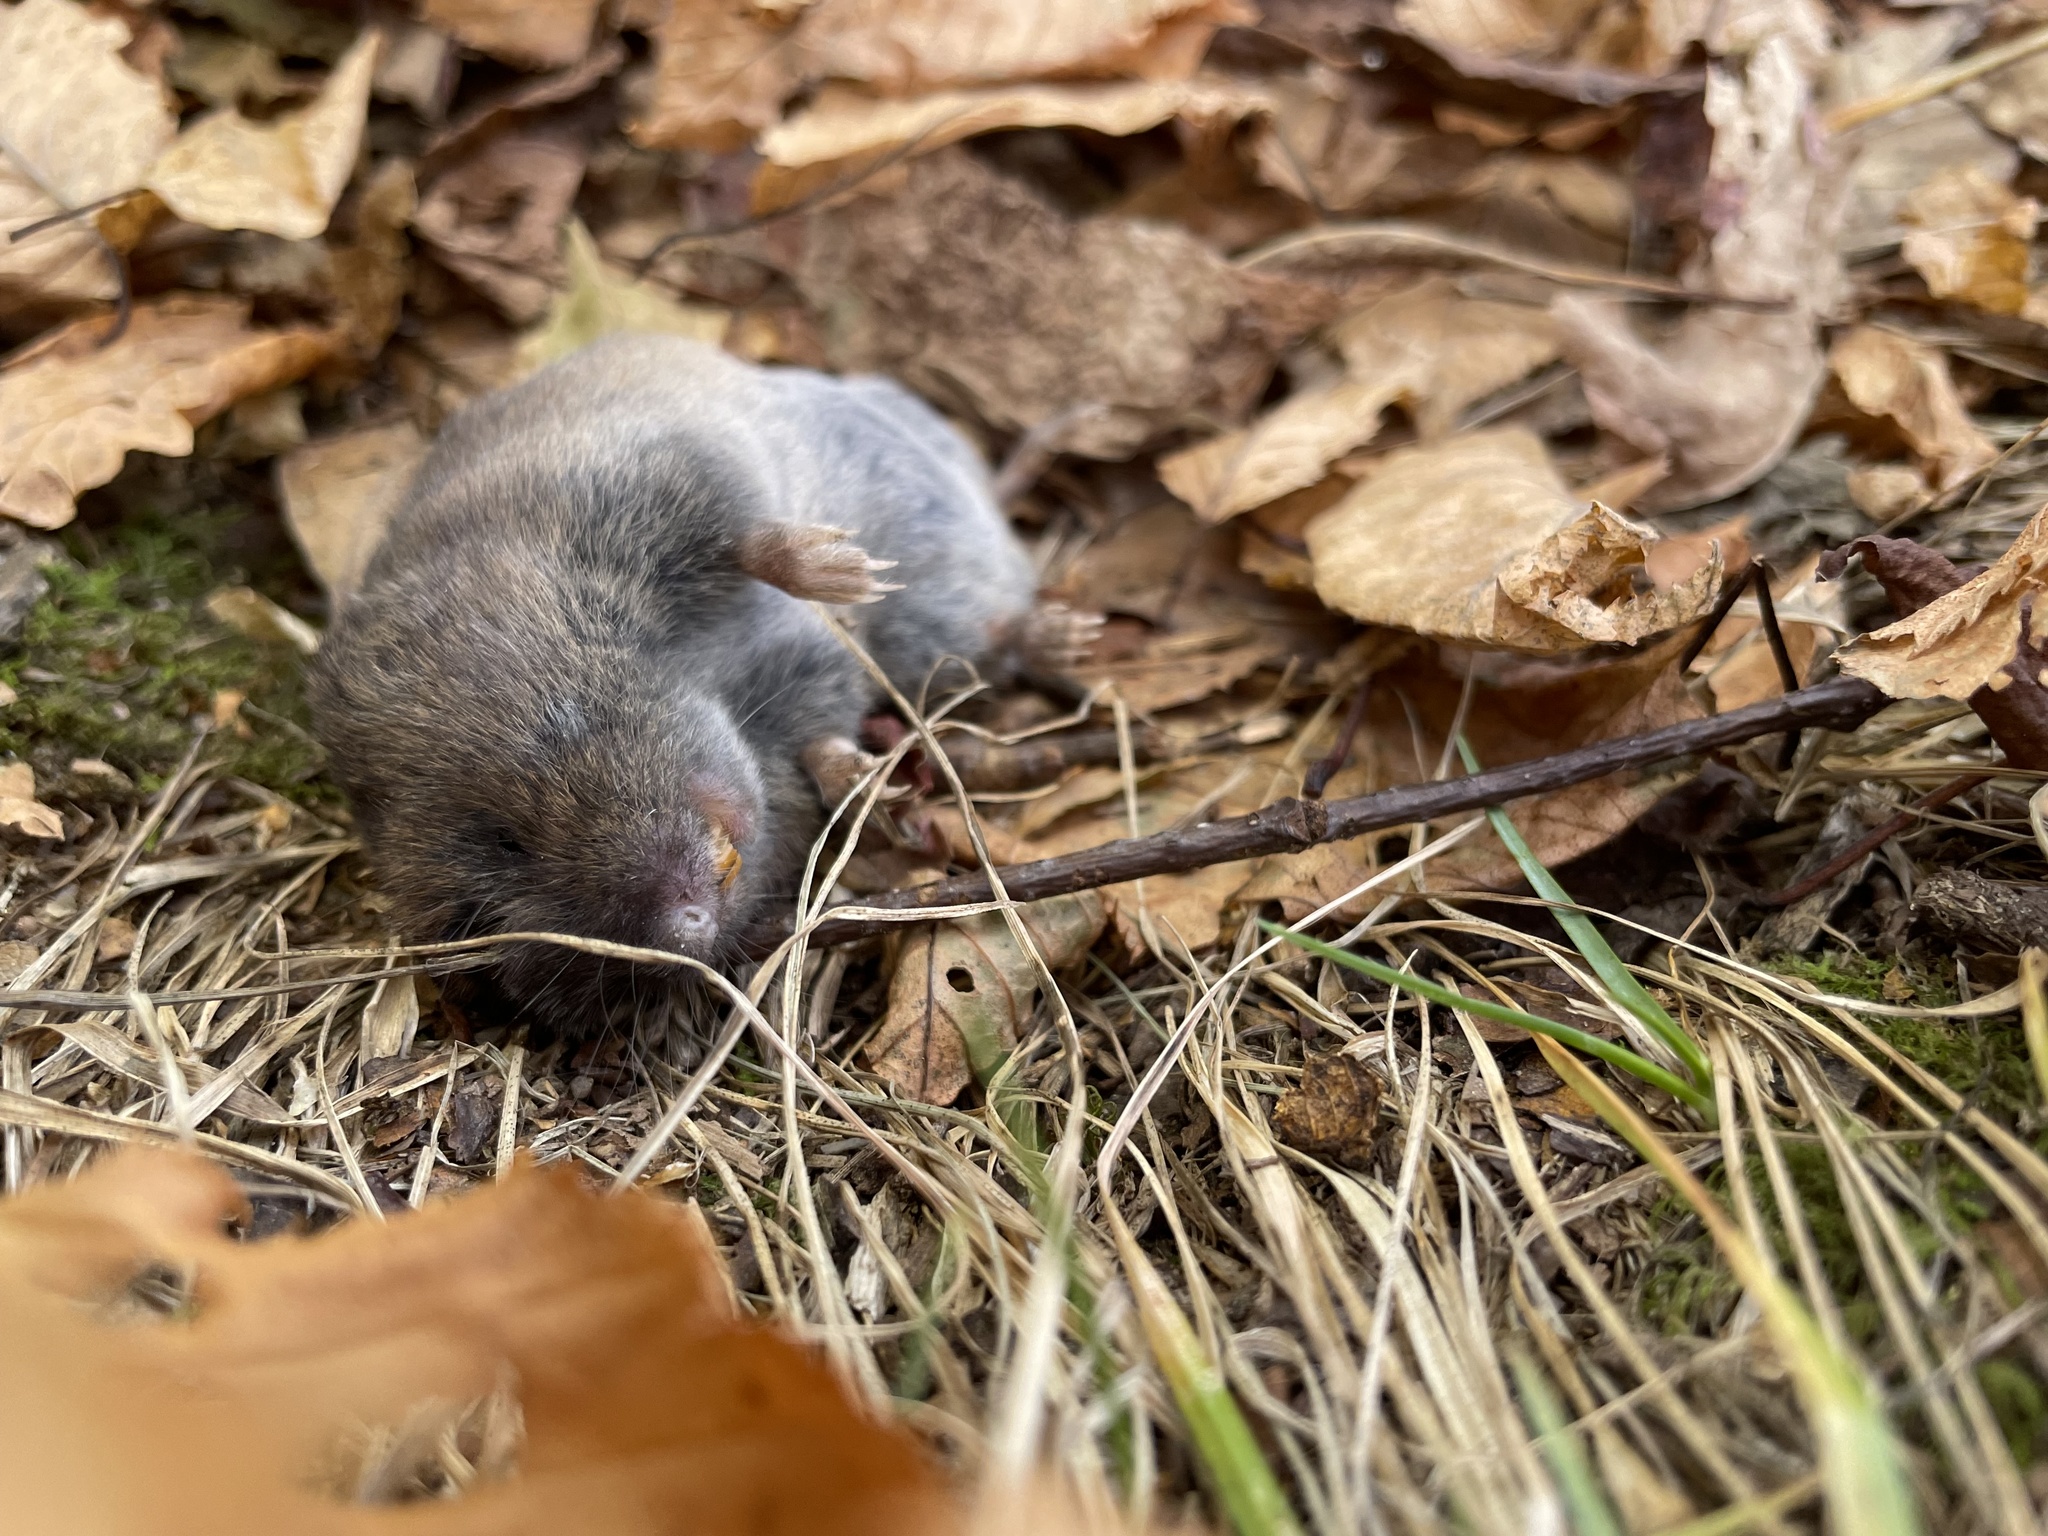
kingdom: Animalia
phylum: Chordata
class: Mammalia
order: Rodentia
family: Cricetidae
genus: Microtus
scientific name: Microtus pinetorum
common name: Woodland vole
